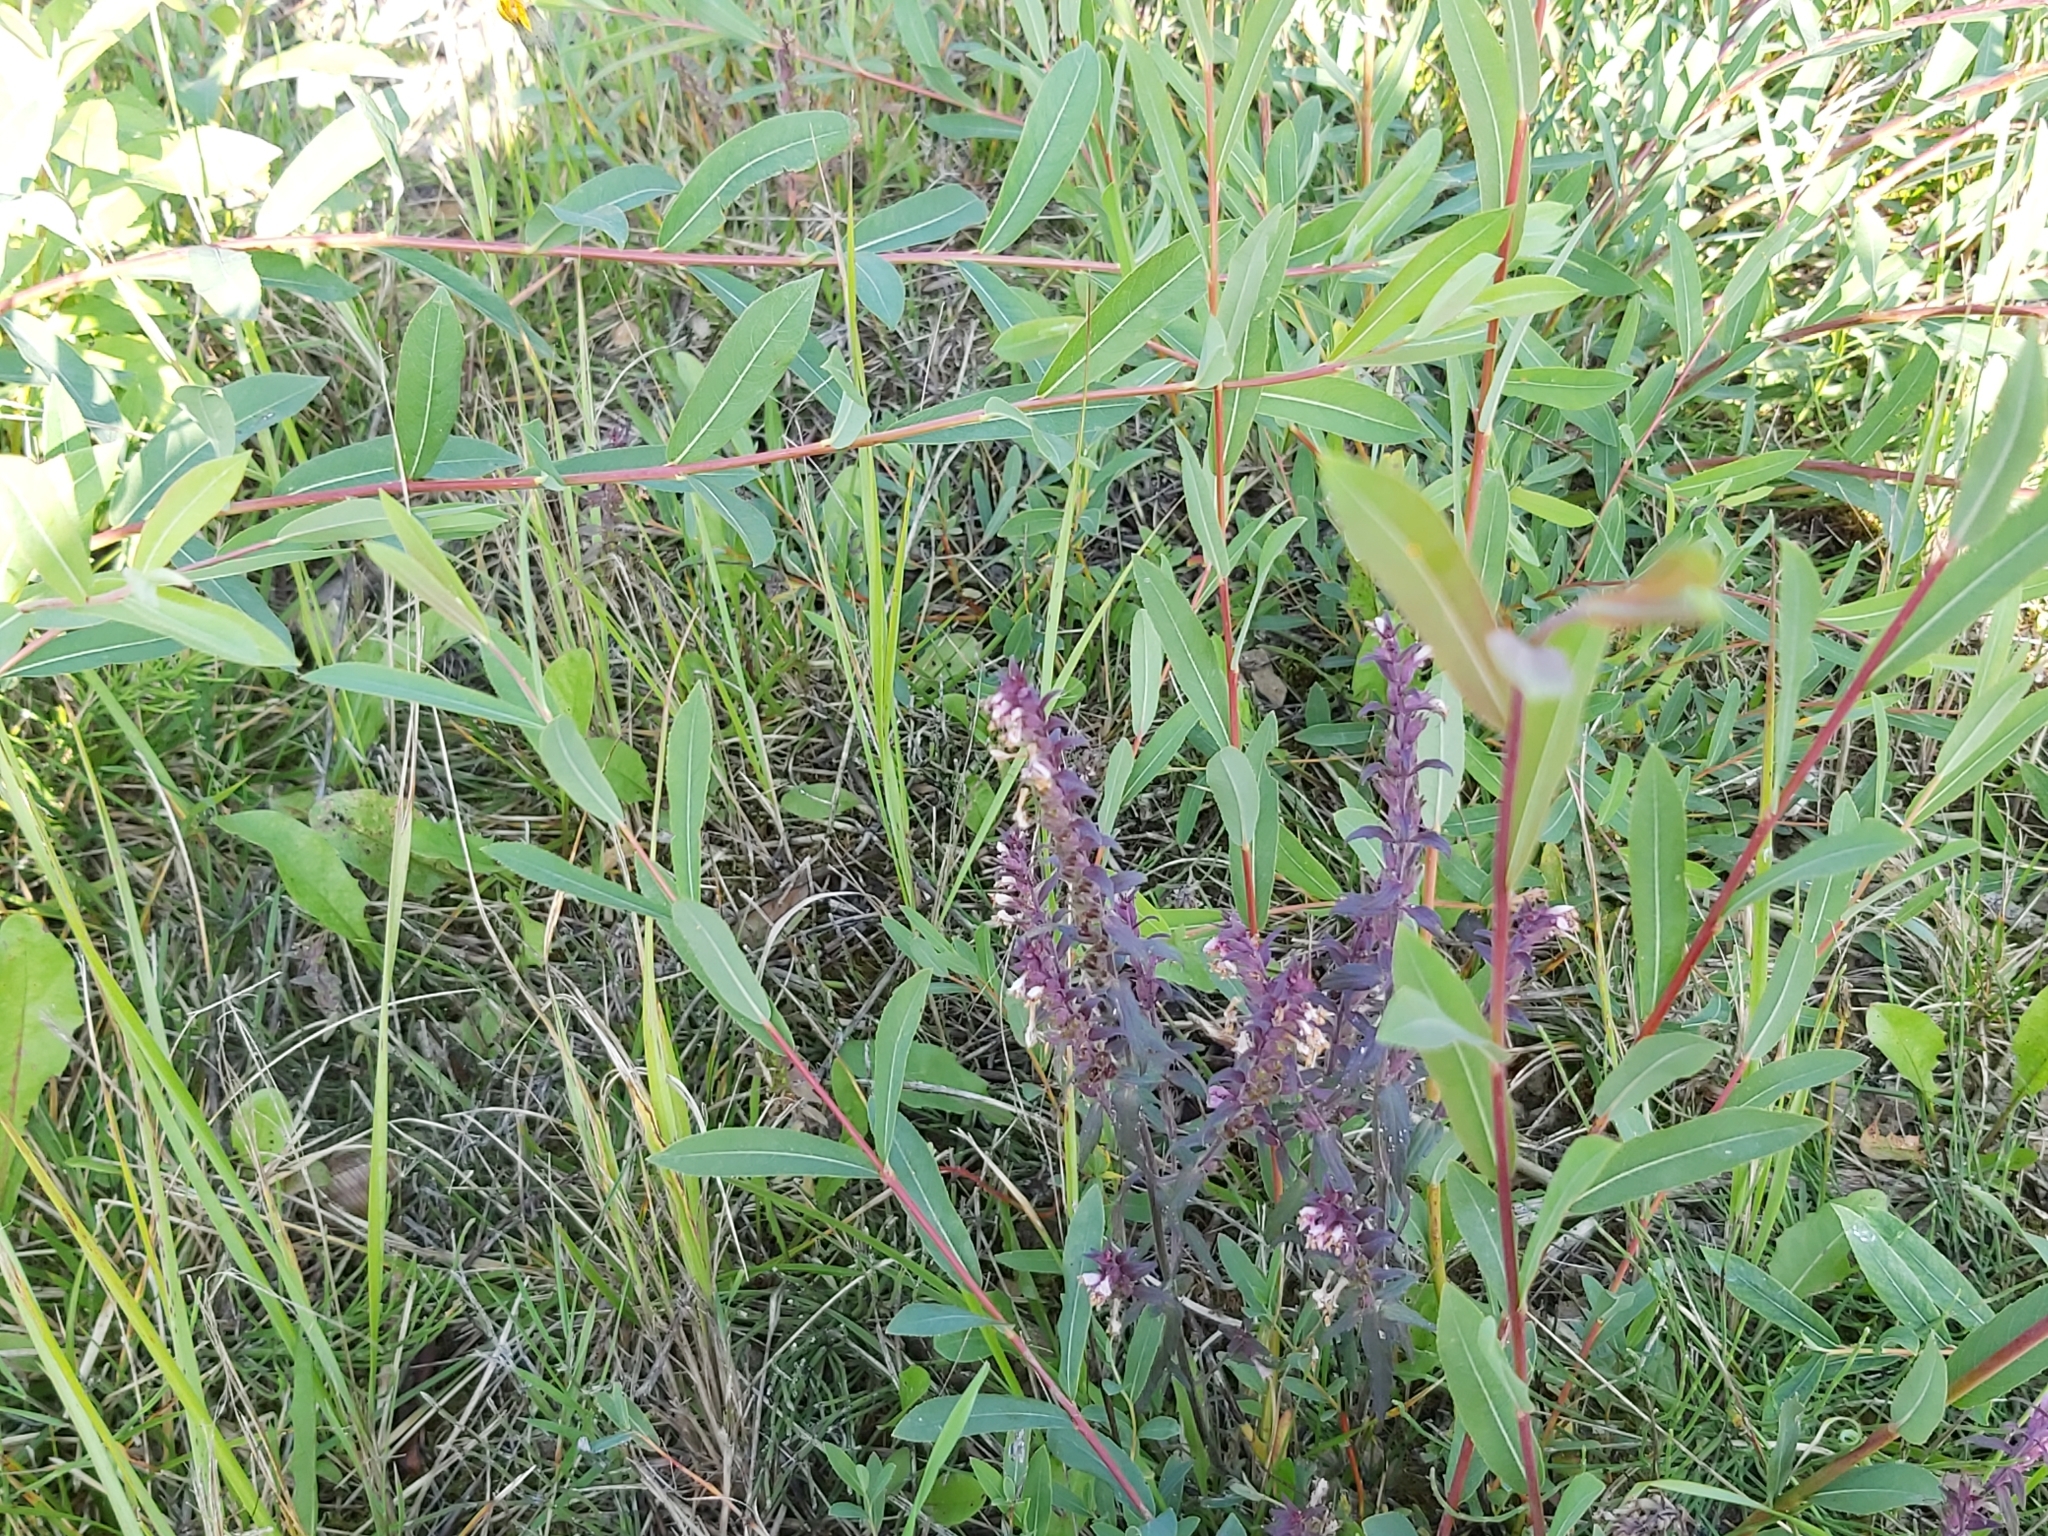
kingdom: Plantae
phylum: Tracheophyta
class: Magnoliopsida
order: Lamiales
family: Orobanchaceae
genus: Odontites
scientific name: Odontites vulgaris
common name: Broomrape
